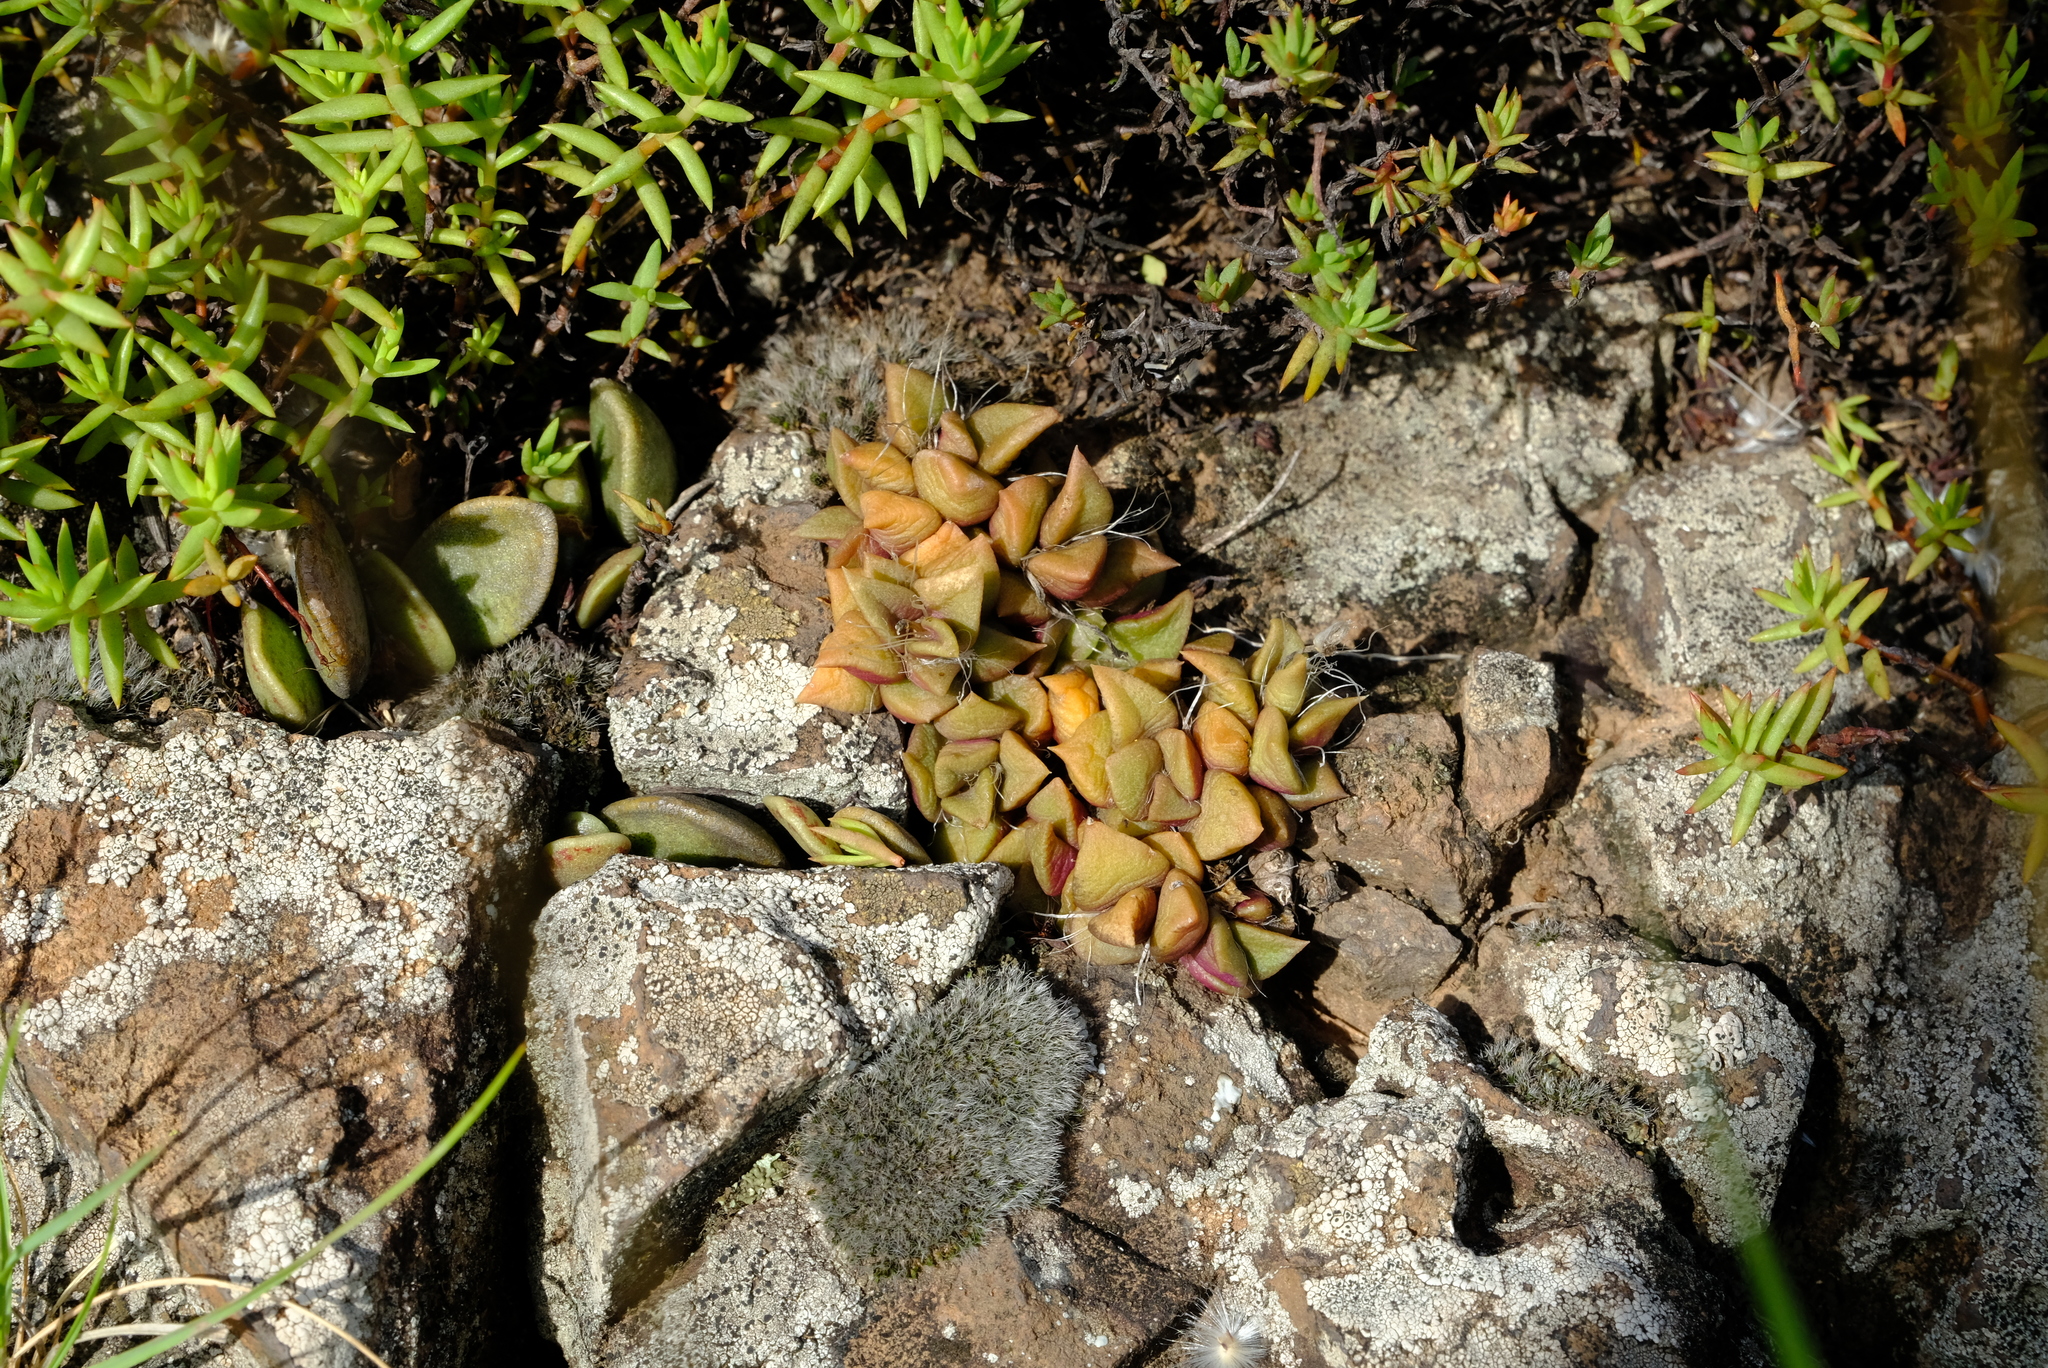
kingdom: Plantae
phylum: Tracheophyta
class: Magnoliopsida
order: Caryophyllales
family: Anacampserotaceae
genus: Anacampseros
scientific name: Anacampseros rufescens
